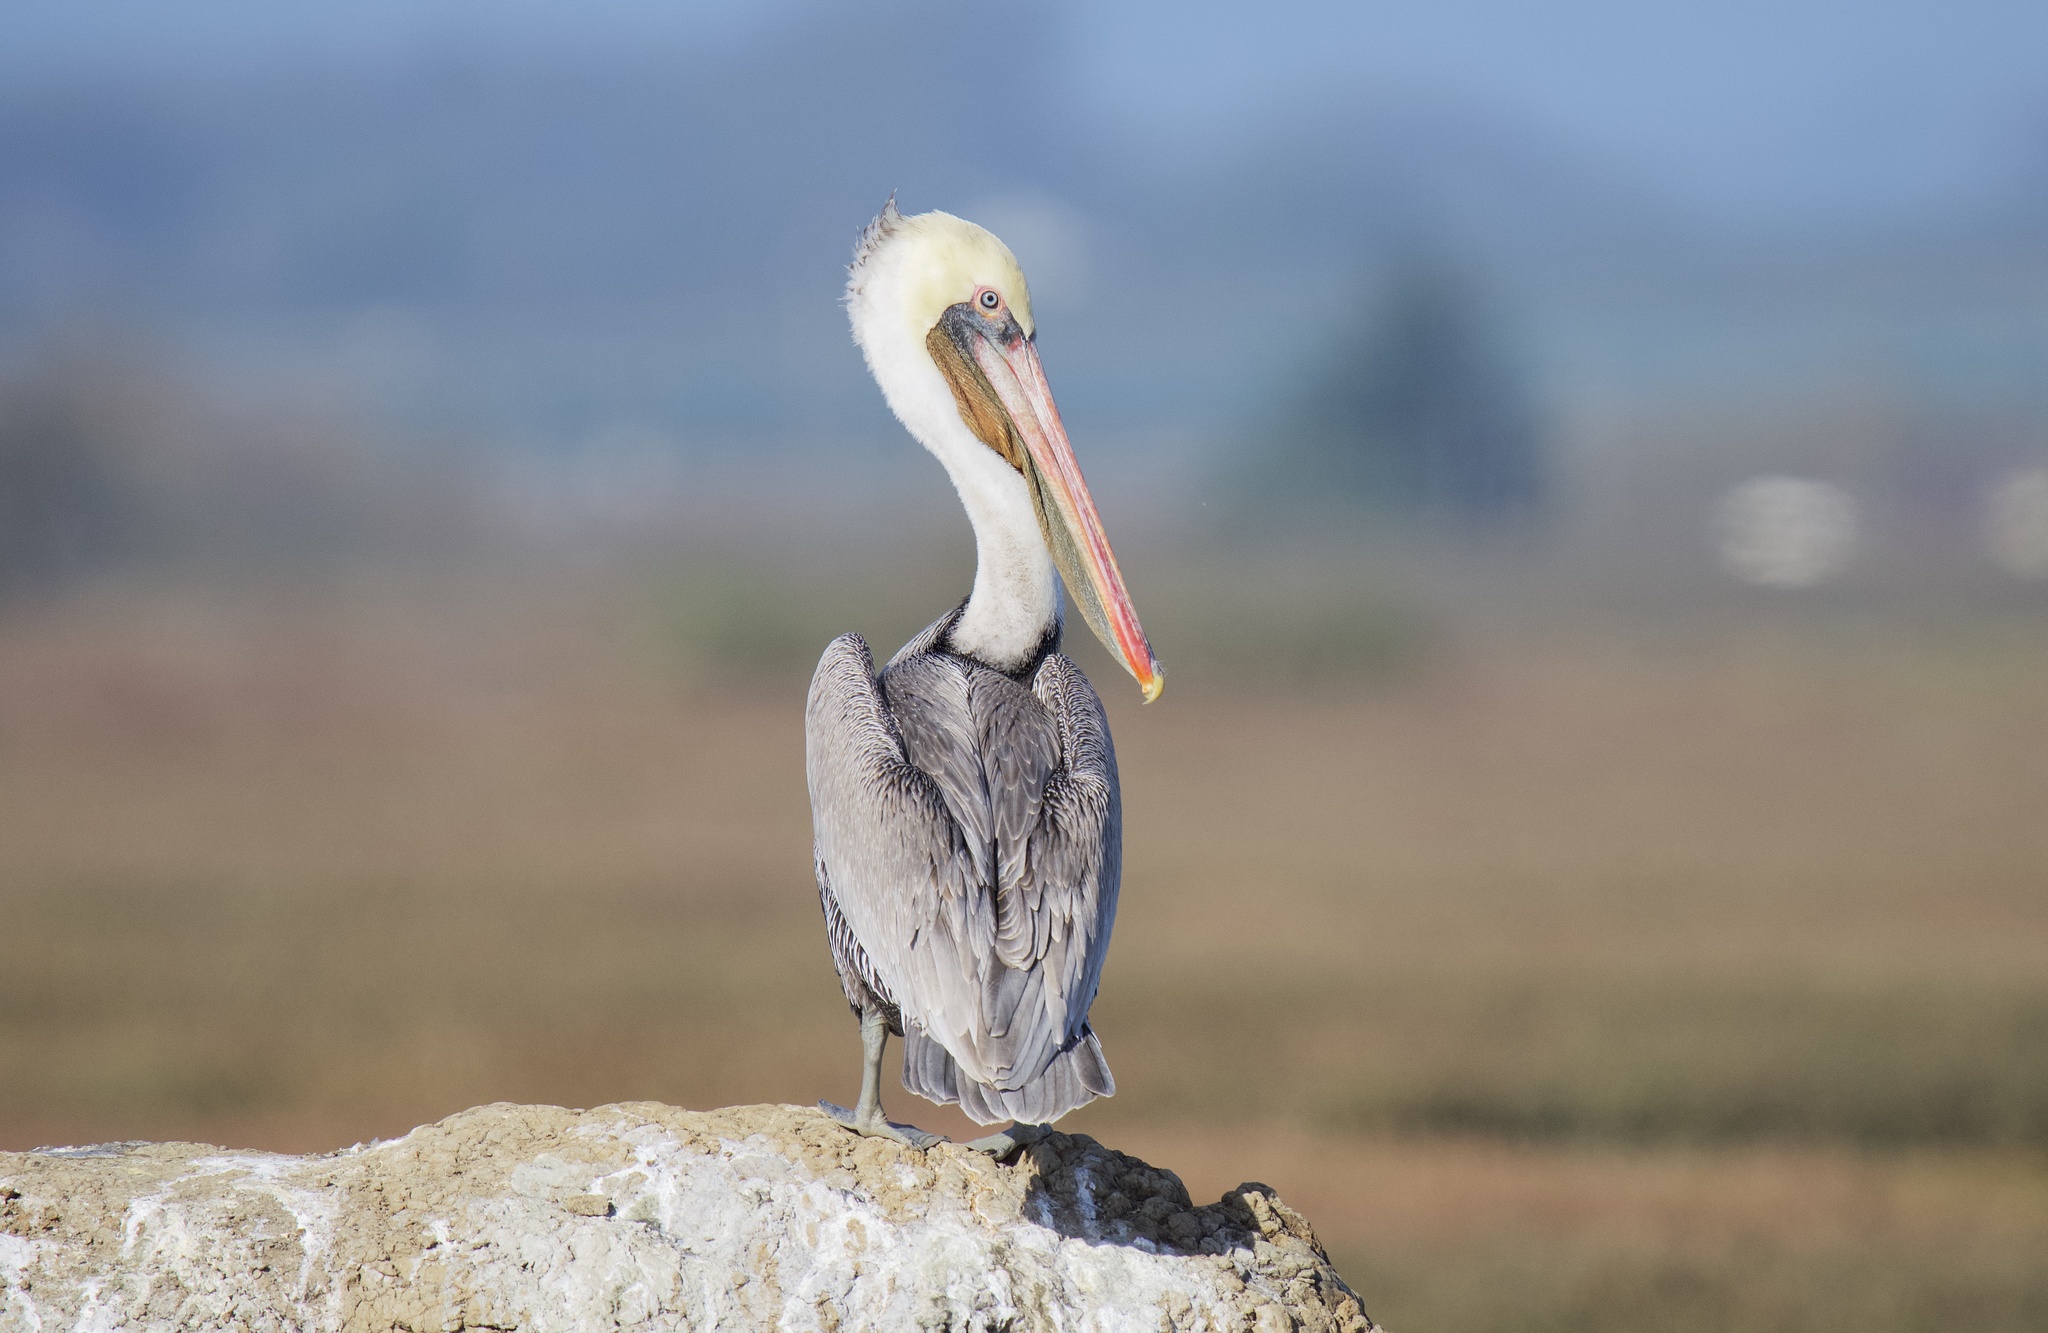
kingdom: Animalia
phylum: Chordata
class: Aves
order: Pelecaniformes
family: Pelecanidae
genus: Pelecanus
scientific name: Pelecanus occidentalis
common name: Brown pelican
